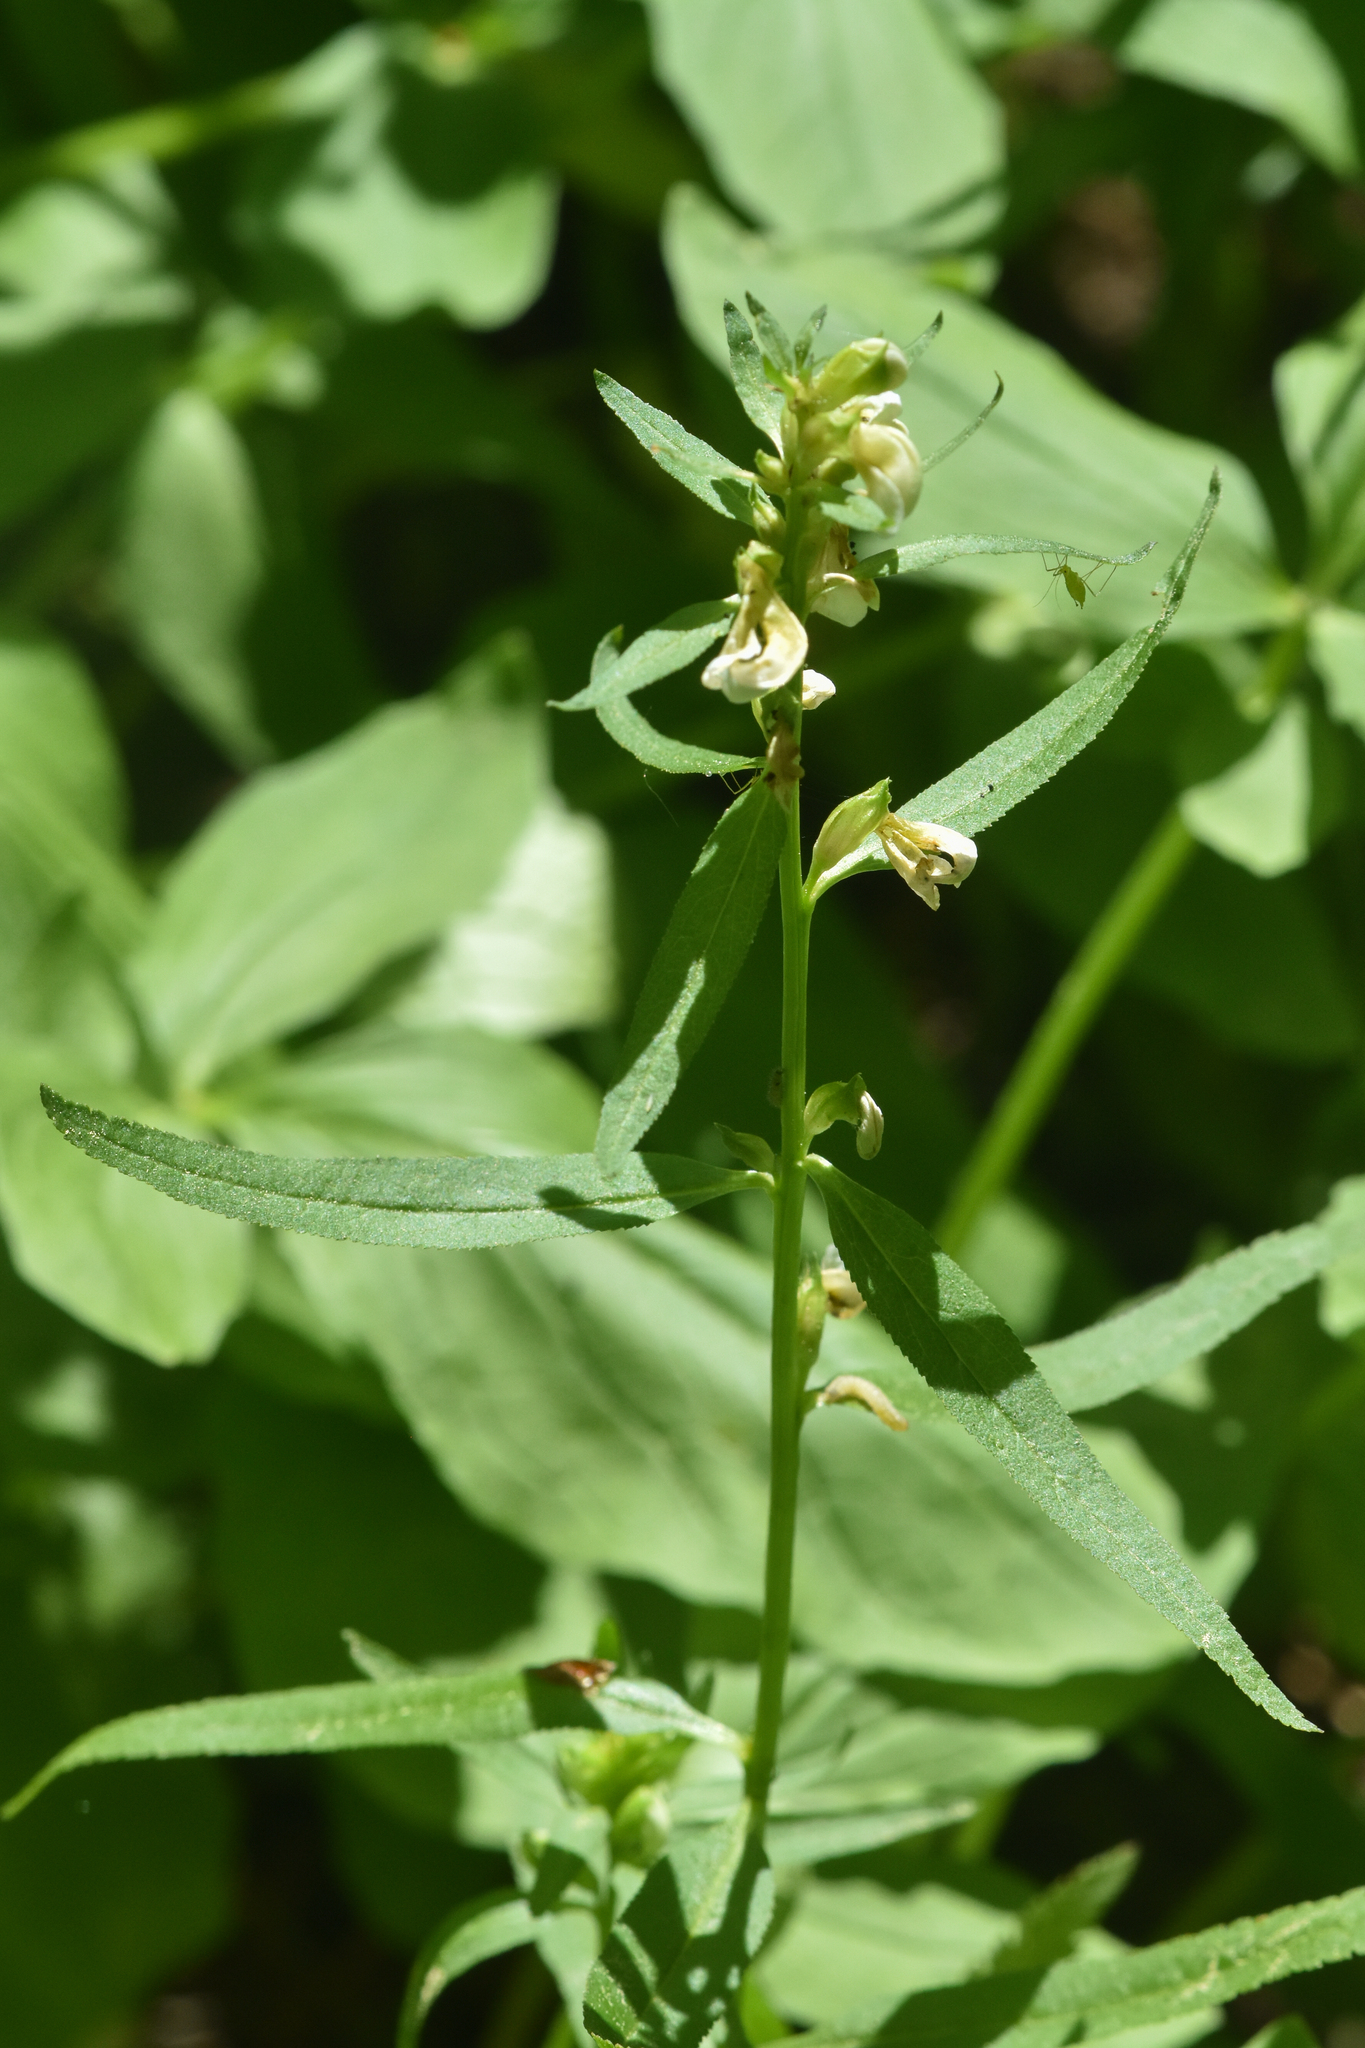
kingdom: Plantae
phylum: Tracheophyta
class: Magnoliopsida
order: Lamiales
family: Orobanchaceae
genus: Pedicularis
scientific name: Pedicularis racemosa
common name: Leafy lousewort
